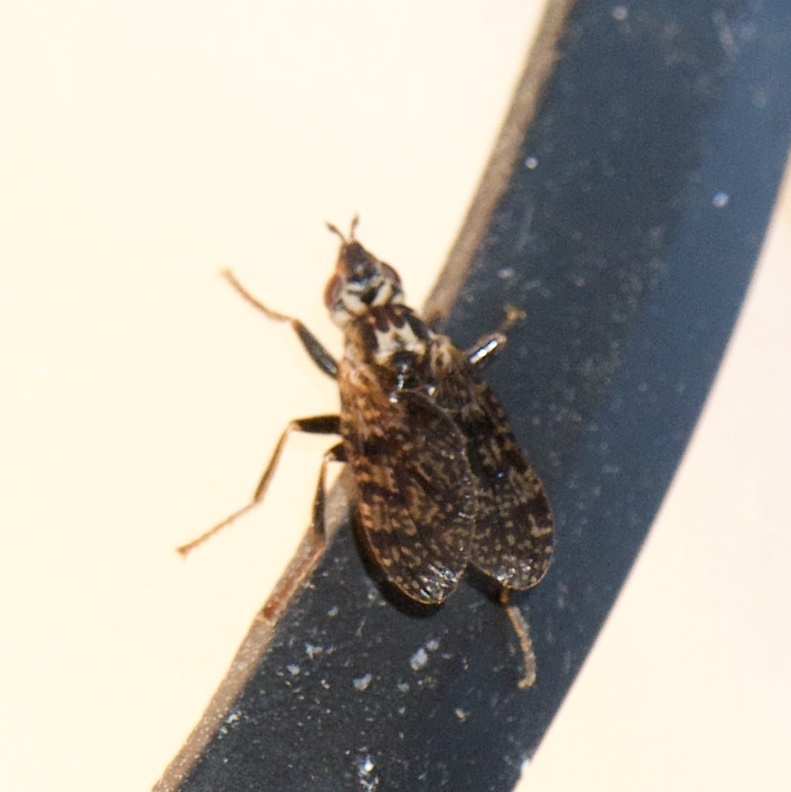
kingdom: Animalia
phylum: Arthropoda
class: Insecta
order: Diptera
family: Pyrgotidae
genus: Pyrgota
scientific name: Pyrgota valida
